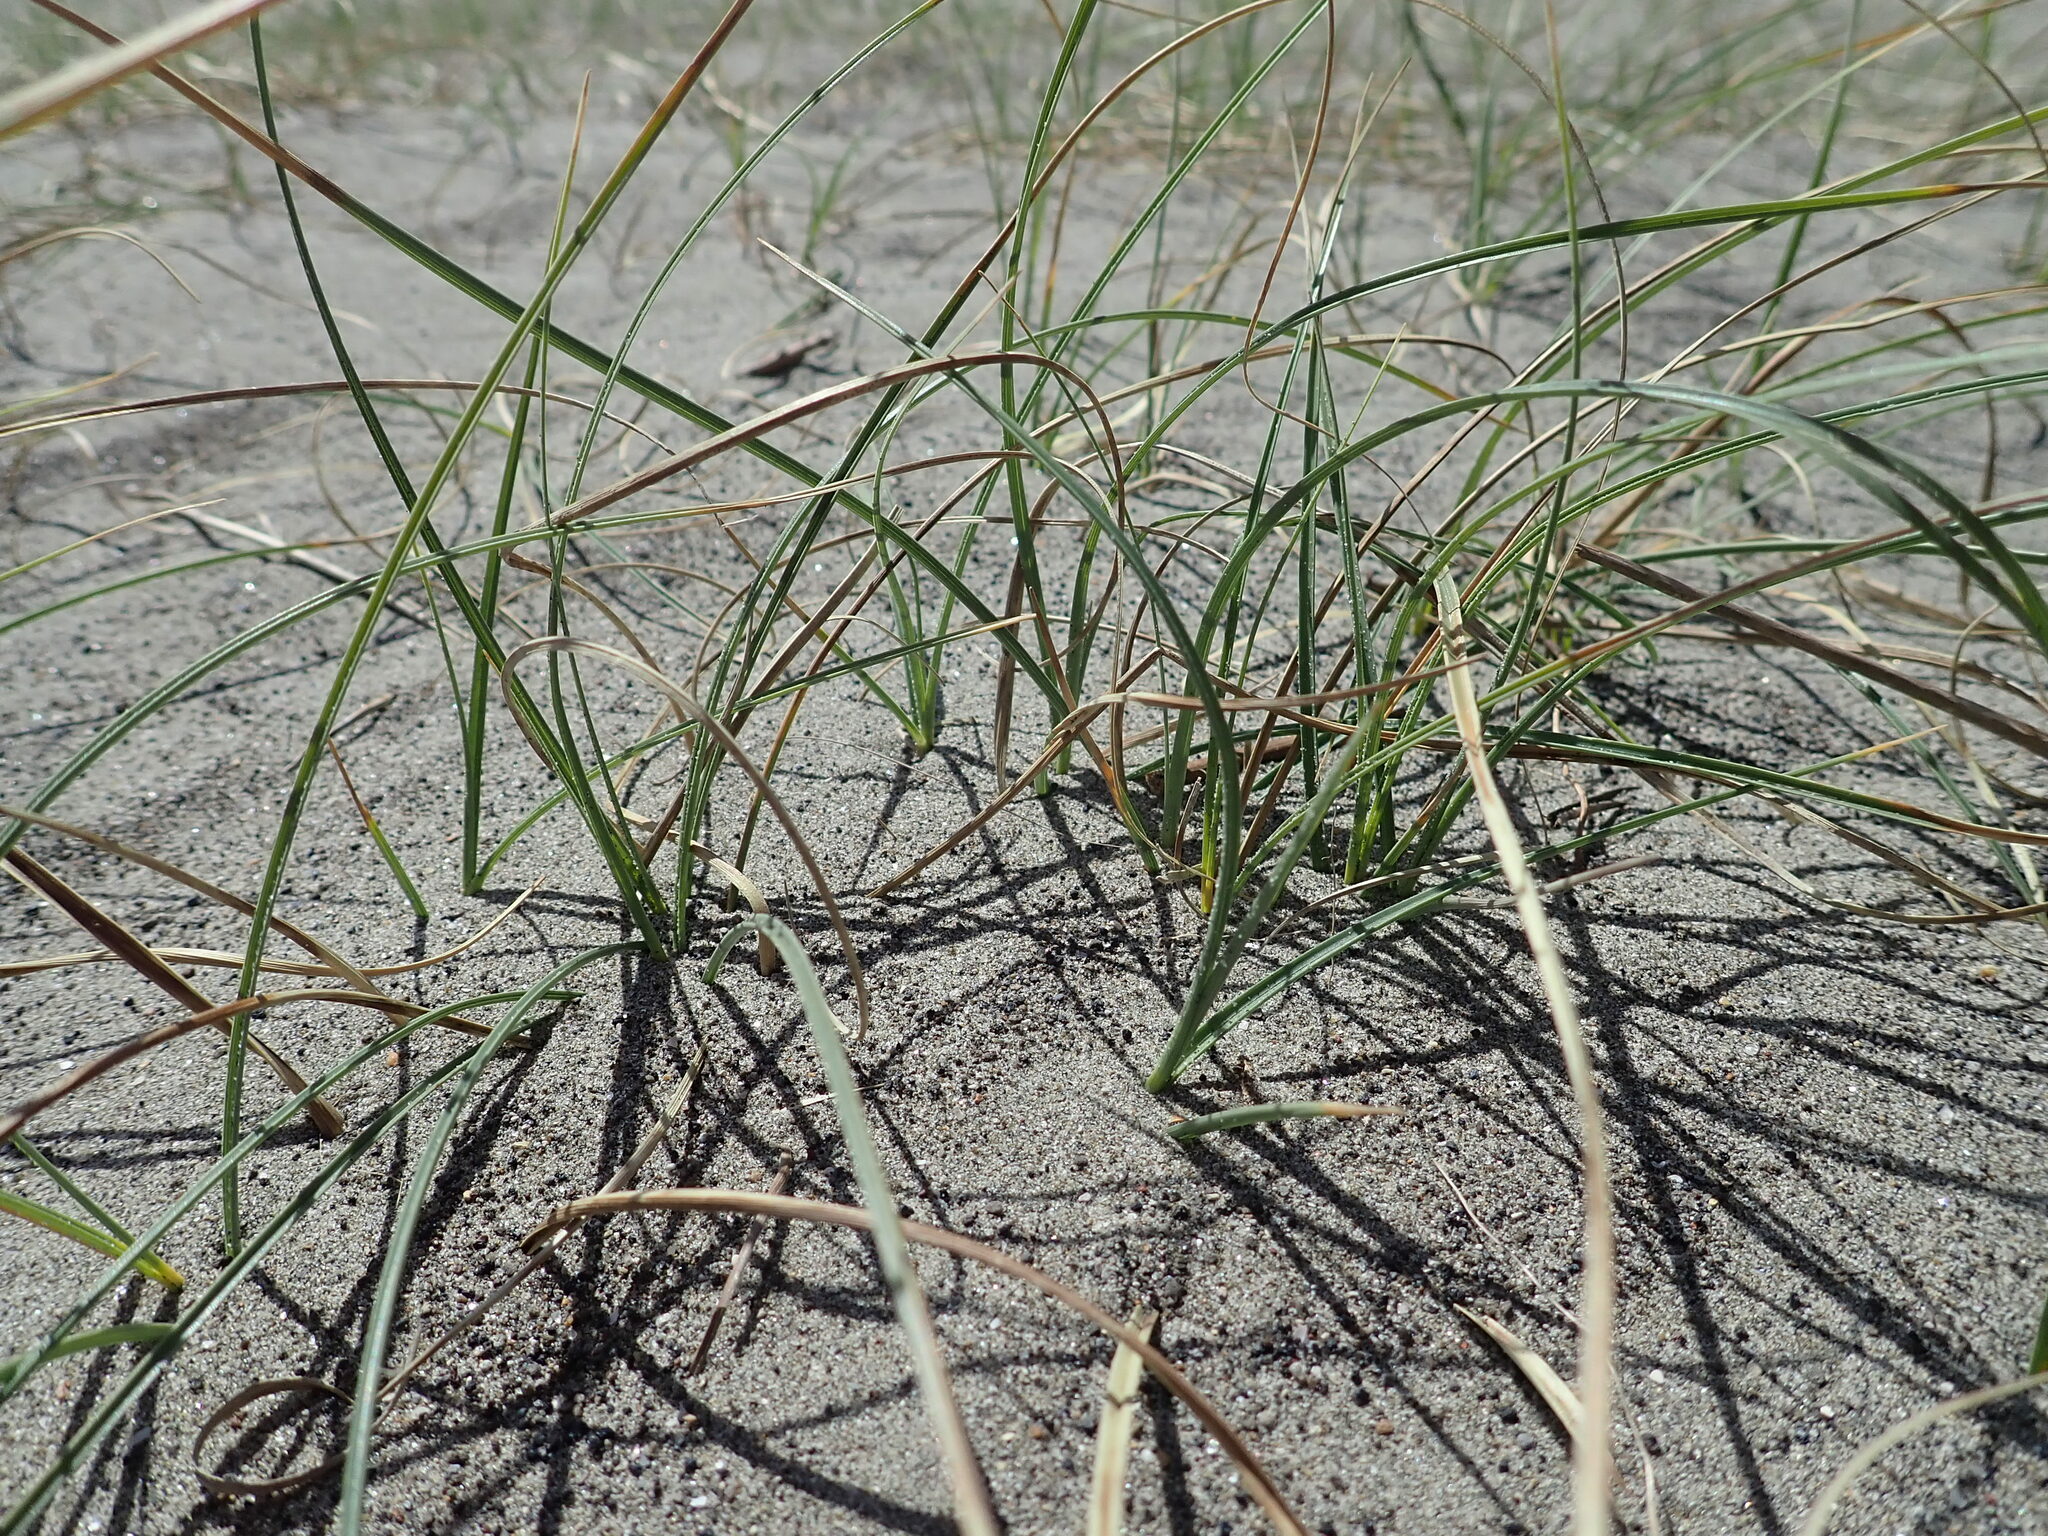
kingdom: Plantae
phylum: Tracheophyta
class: Liliopsida
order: Poales
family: Cyperaceae
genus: Carex
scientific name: Carex pumila
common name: Dwarf sedge
